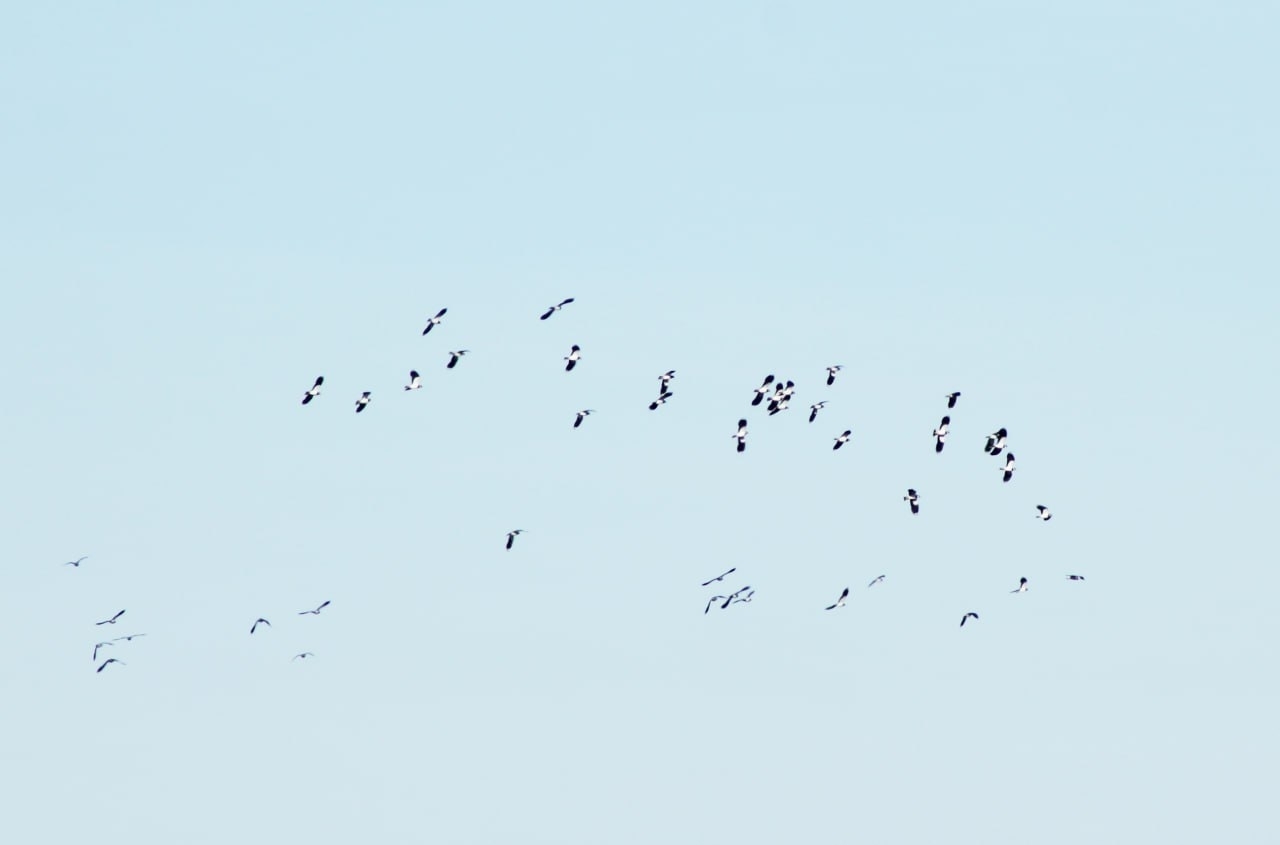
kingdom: Animalia
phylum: Chordata
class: Aves
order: Charadriiformes
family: Charadriidae
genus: Vanellus
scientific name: Vanellus vanellus
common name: Northern lapwing
